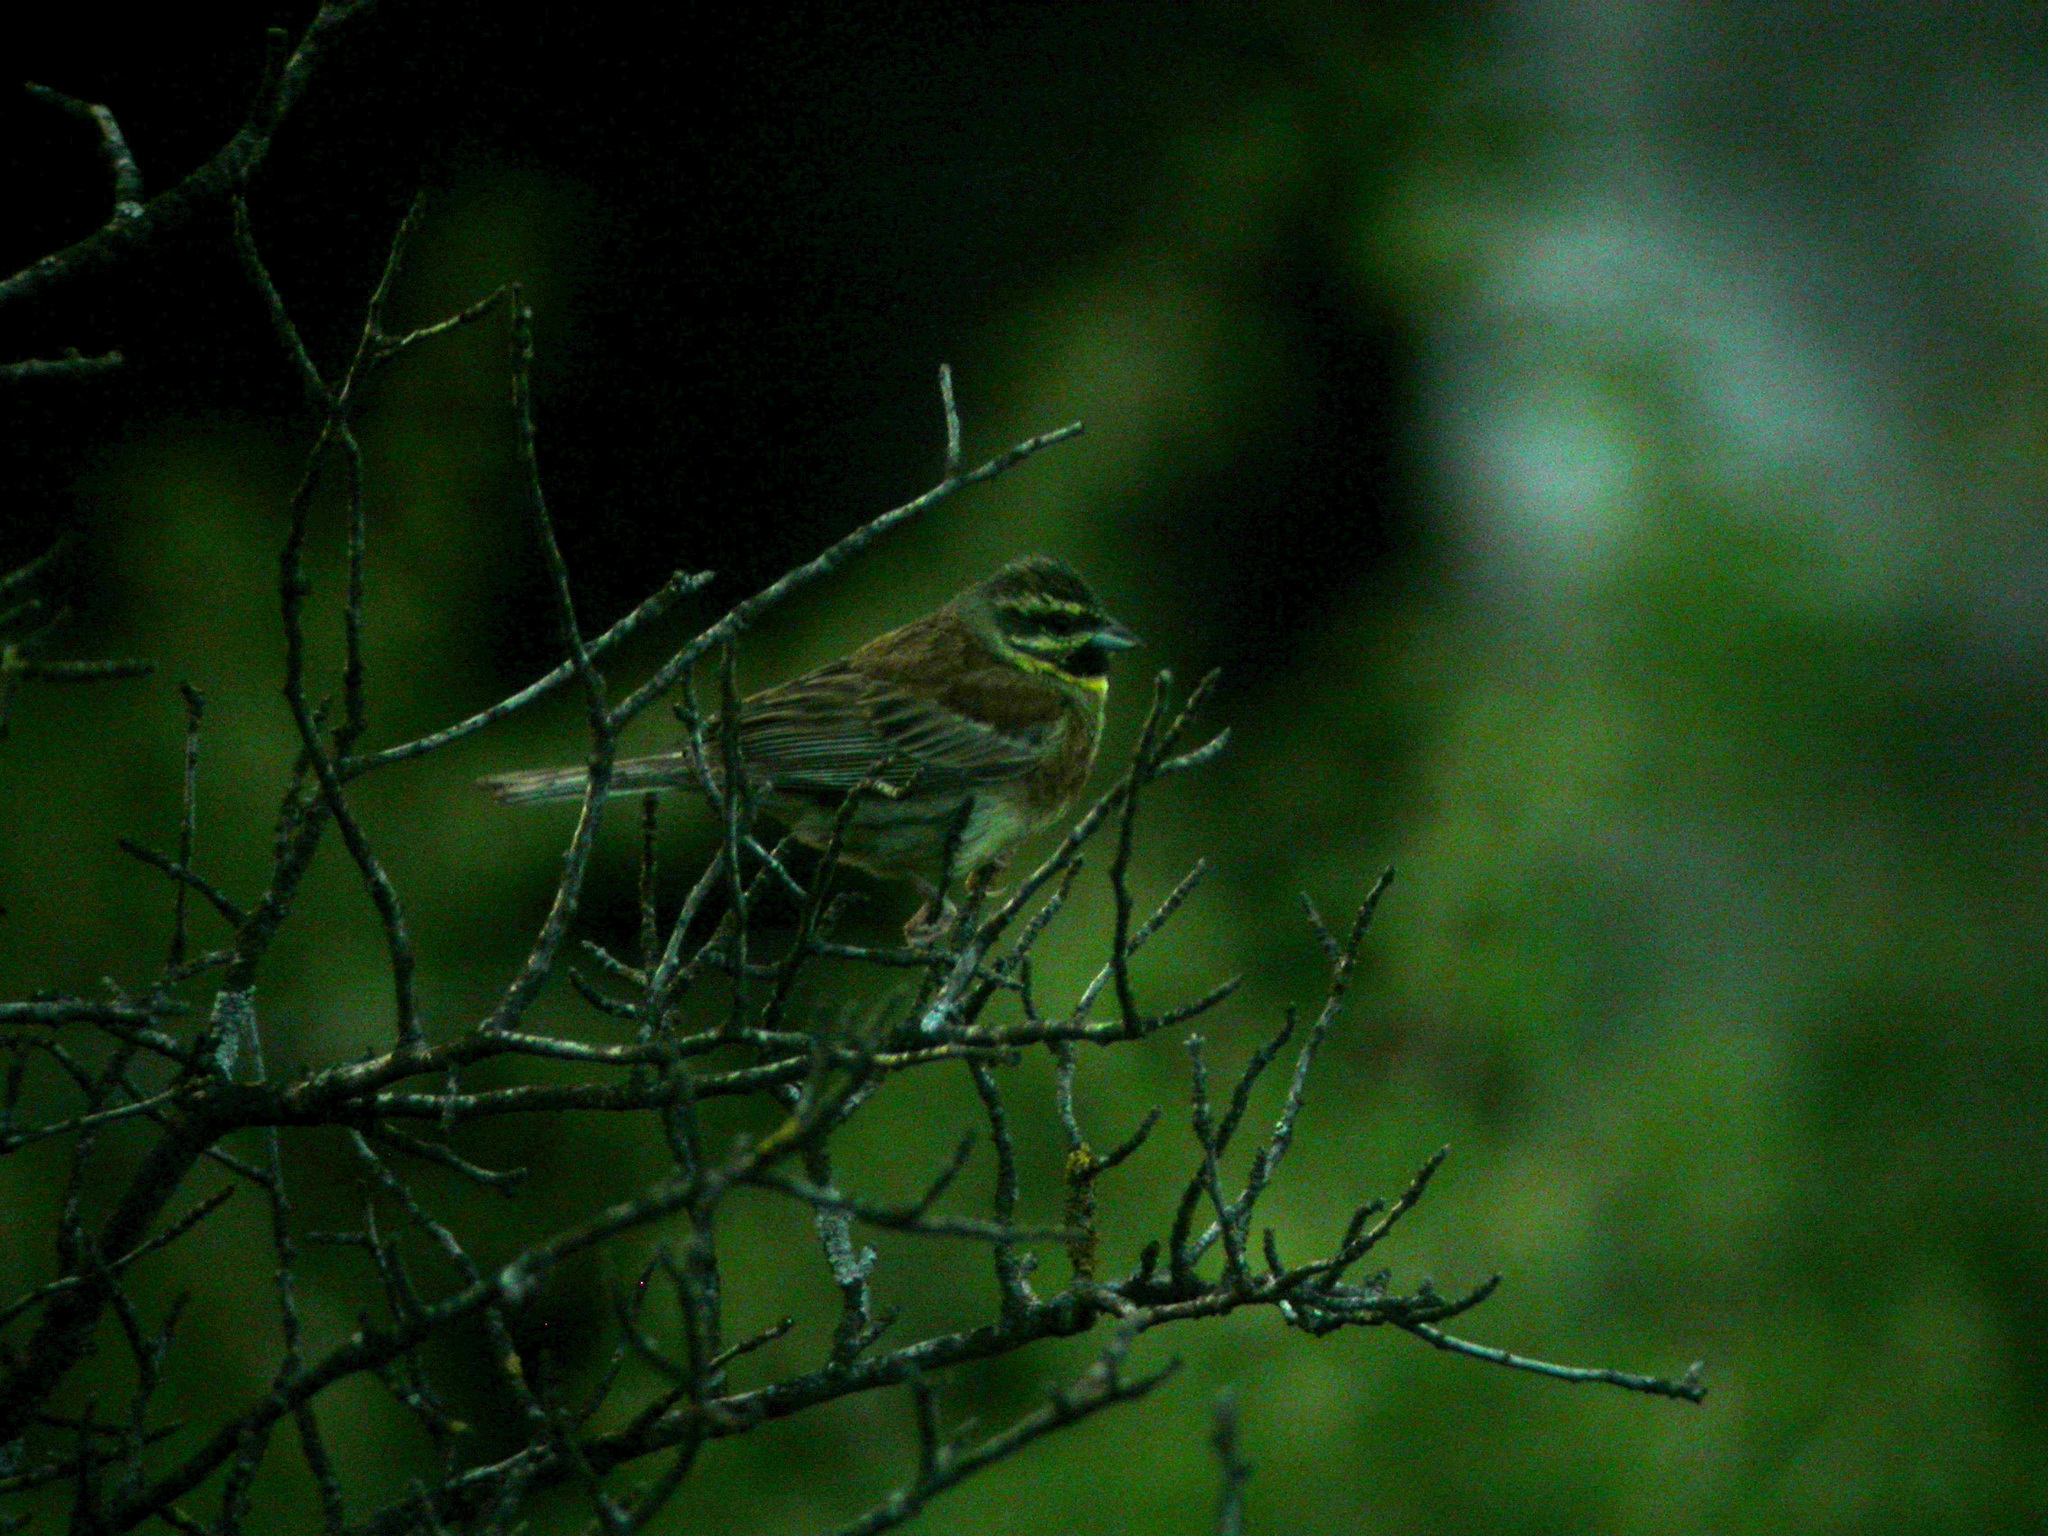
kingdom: Animalia
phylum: Chordata
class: Aves
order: Passeriformes
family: Emberizidae
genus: Emberiza
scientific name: Emberiza cirlus
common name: Cirl bunting
